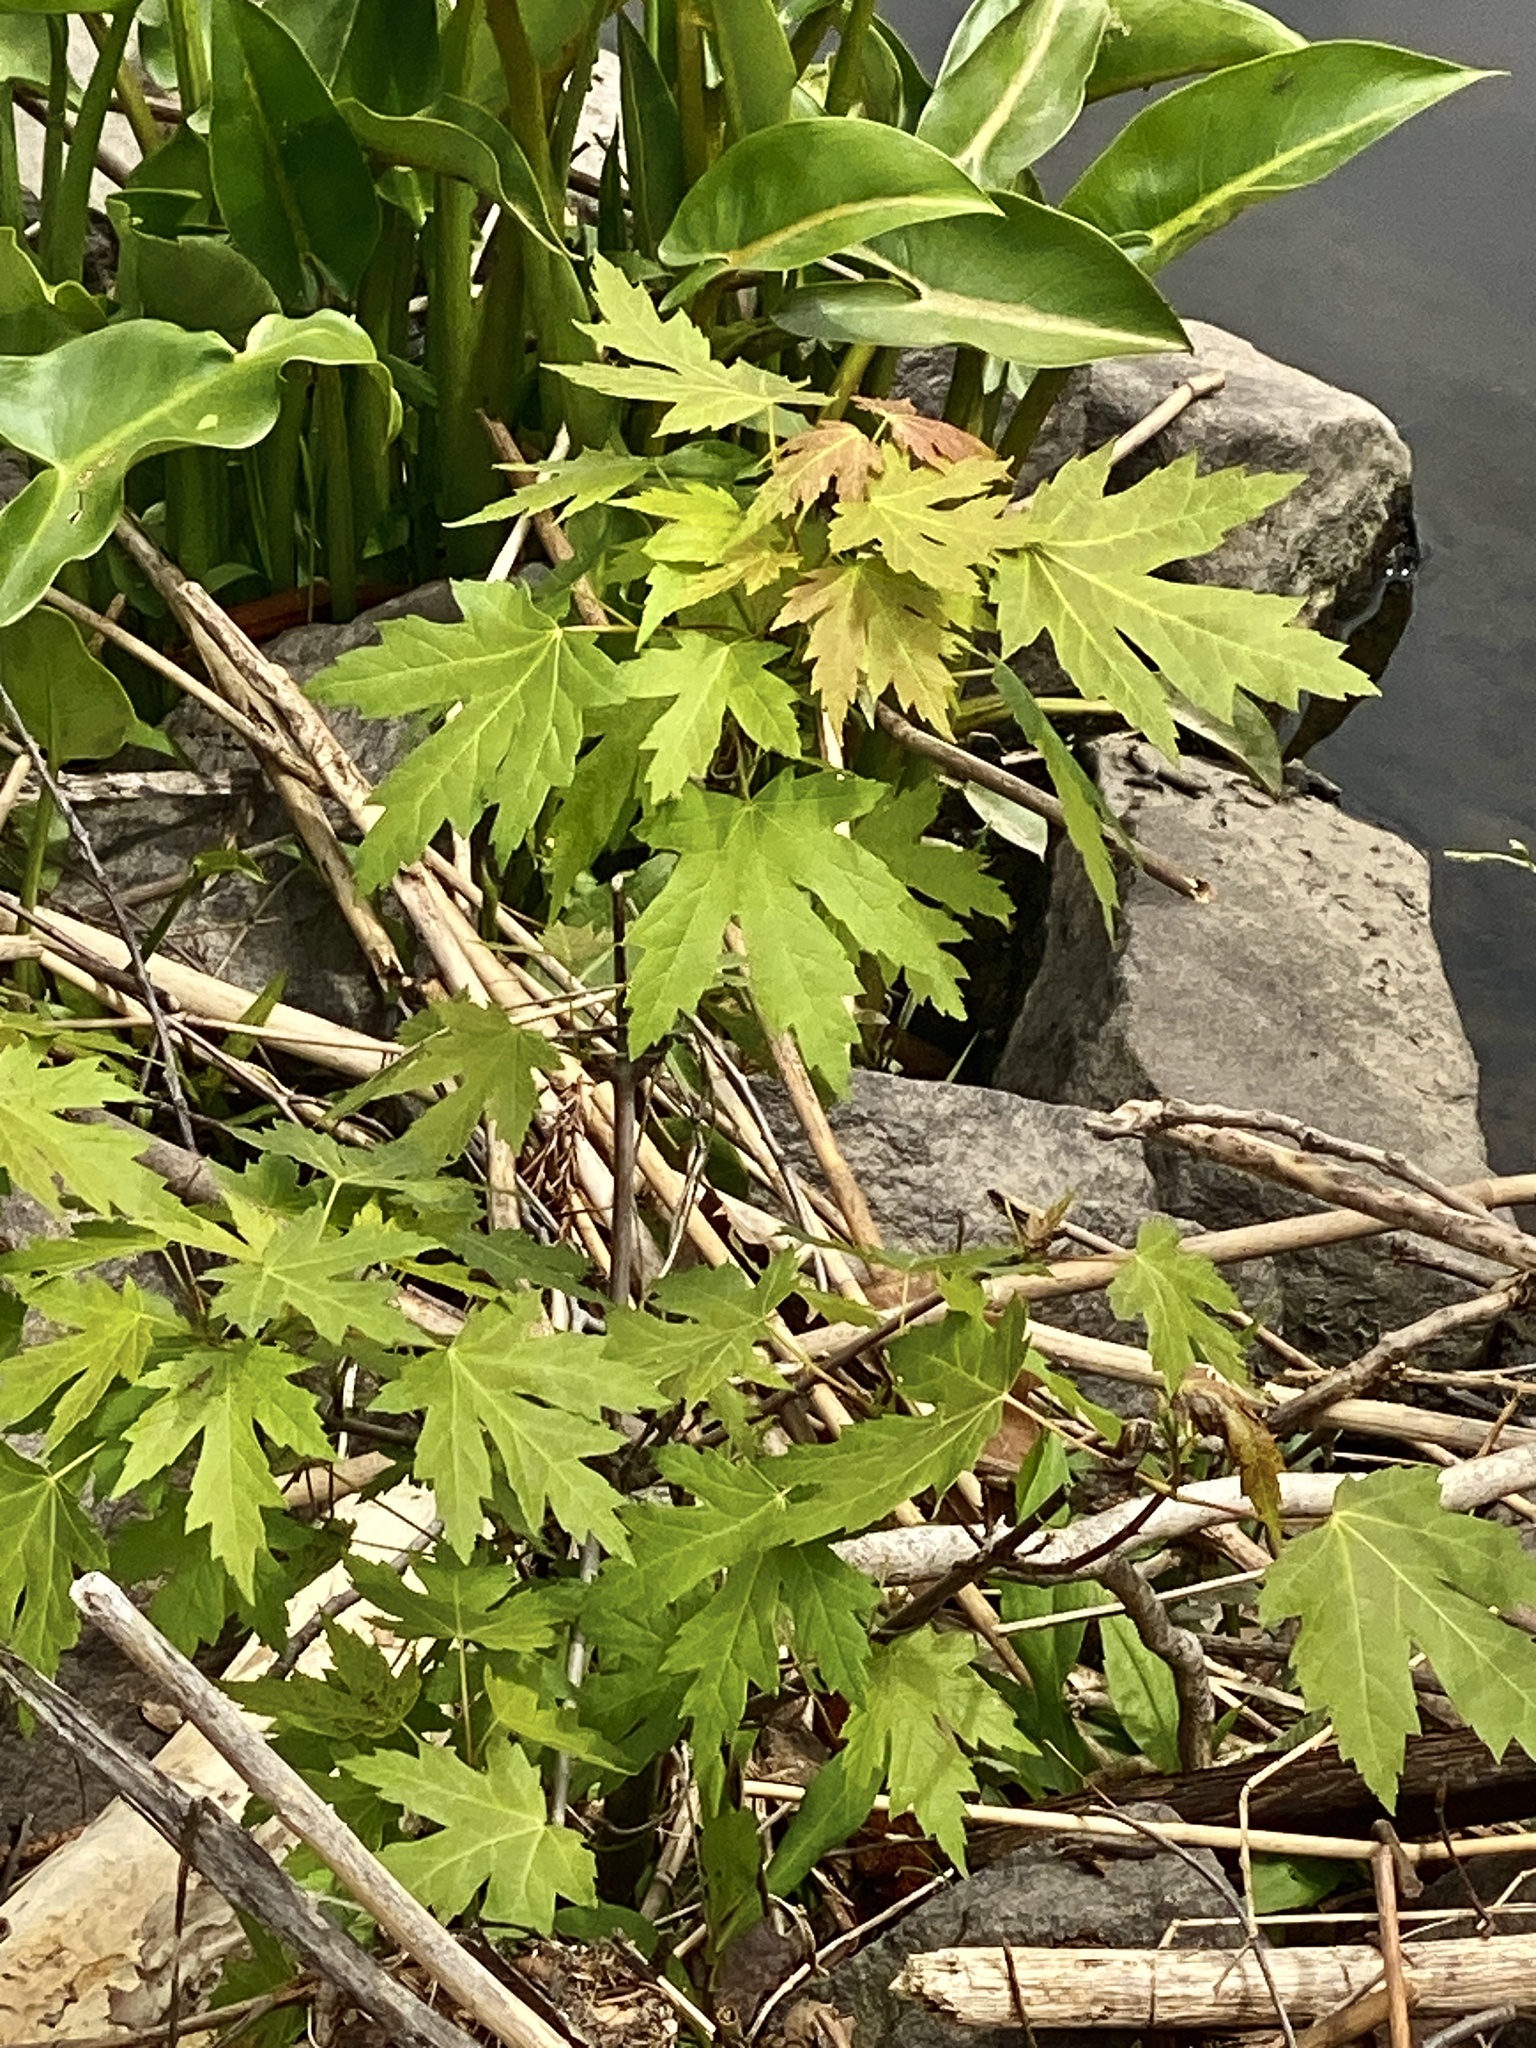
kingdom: Plantae
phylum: Tracheophyta
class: Magnoliopsida
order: Sapindales
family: Sapindaceae
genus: Acer
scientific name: Acer saccharinum
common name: Silver maple
